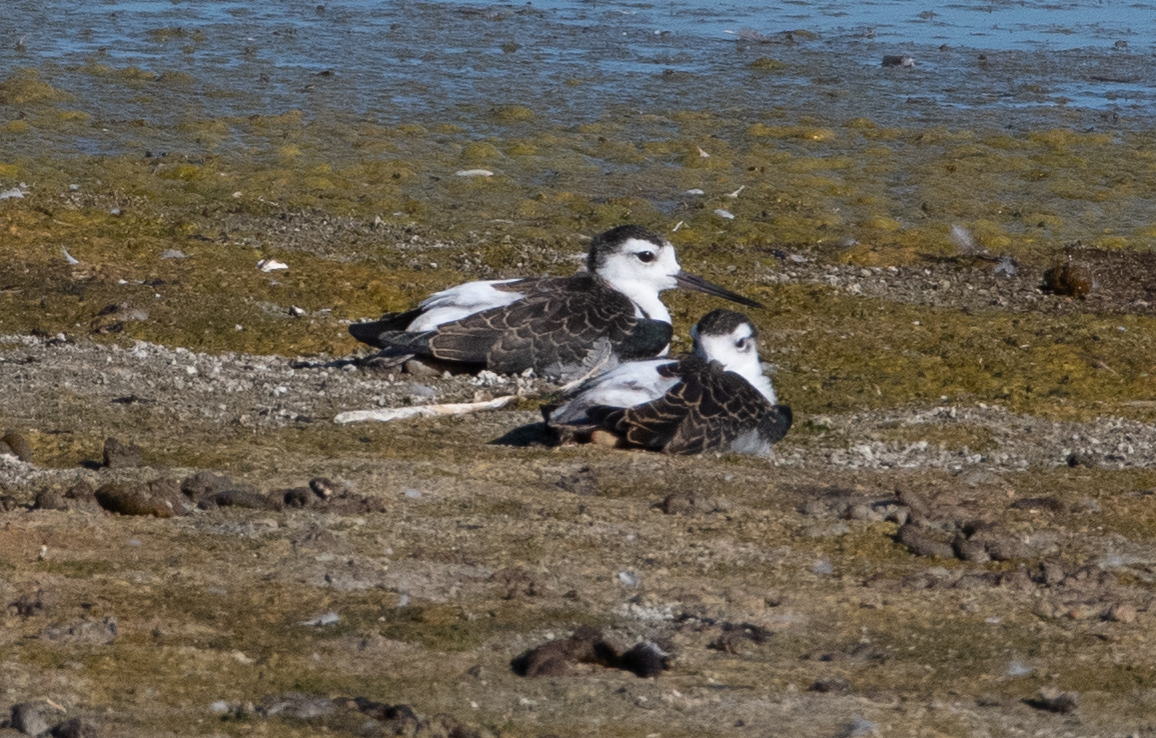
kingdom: Animalia
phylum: Chordata
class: Aves
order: Charadriiformes
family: Recurvirostridae
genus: Himantopus
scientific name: Himantopus mexicanus
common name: Black-necked stilt
